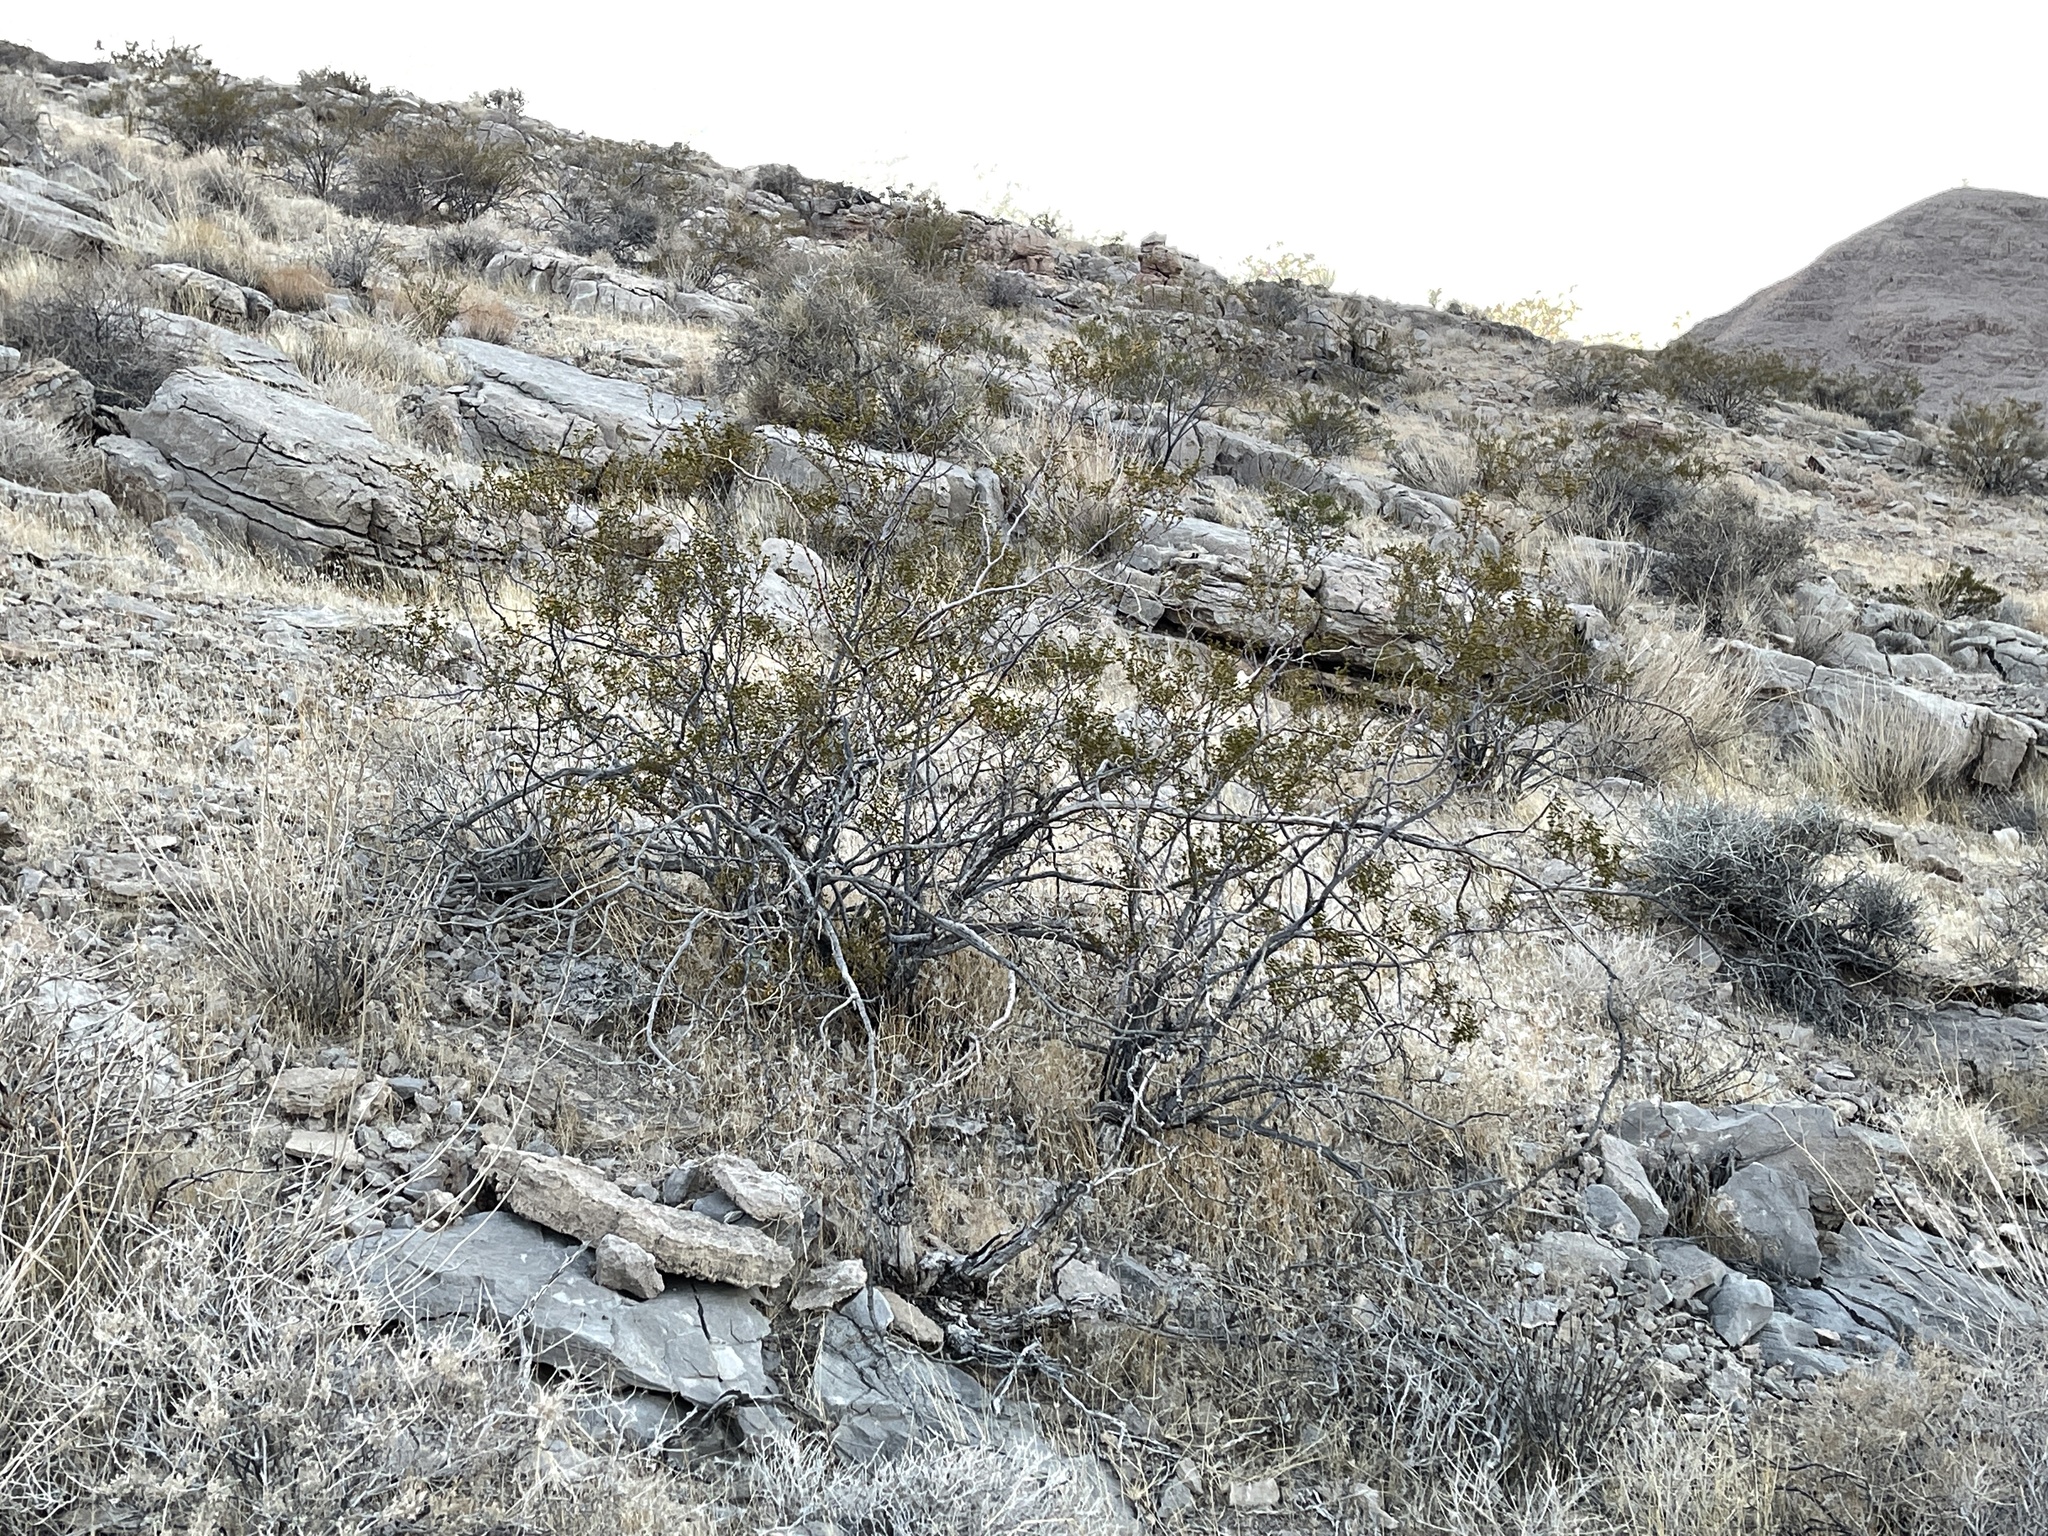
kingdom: Plantae
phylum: Tracheophyta
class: Magnoliopsida
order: Zygophyllales
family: Zygophyllaceae
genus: Larrea
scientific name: Larrea tridentata
